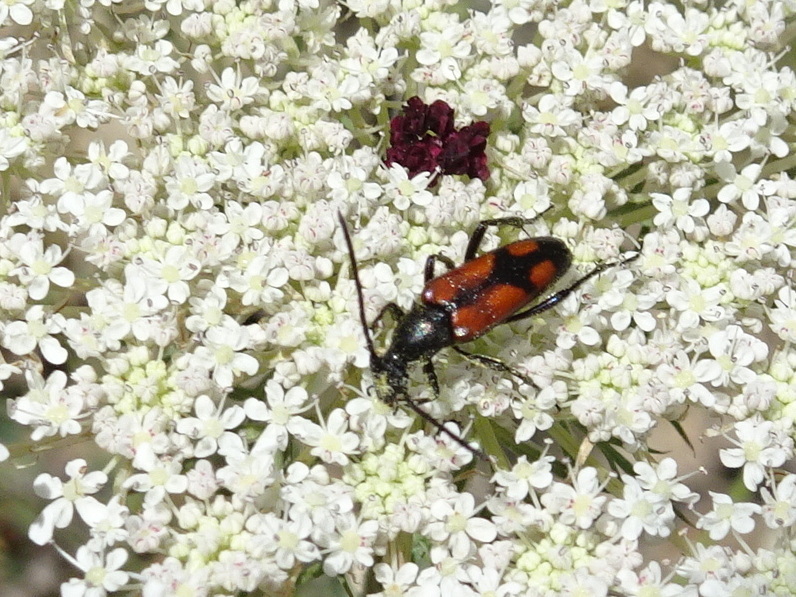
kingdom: Animalia
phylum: Arthropoda
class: Insecta
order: Coleoptera
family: Cerambycidae
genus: Stenurella
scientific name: Stenurella bifasciata
